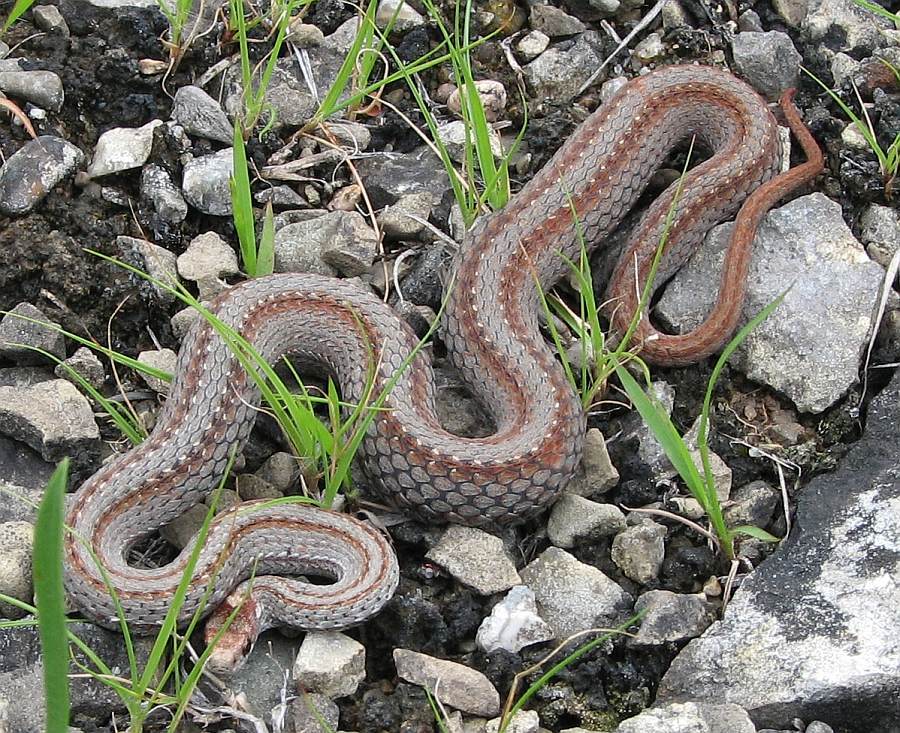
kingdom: Animalia
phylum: Chordata
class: Squamata
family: Colubridae
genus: Storeria
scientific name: Storeria occipitomaculata
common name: Redbelly snake
